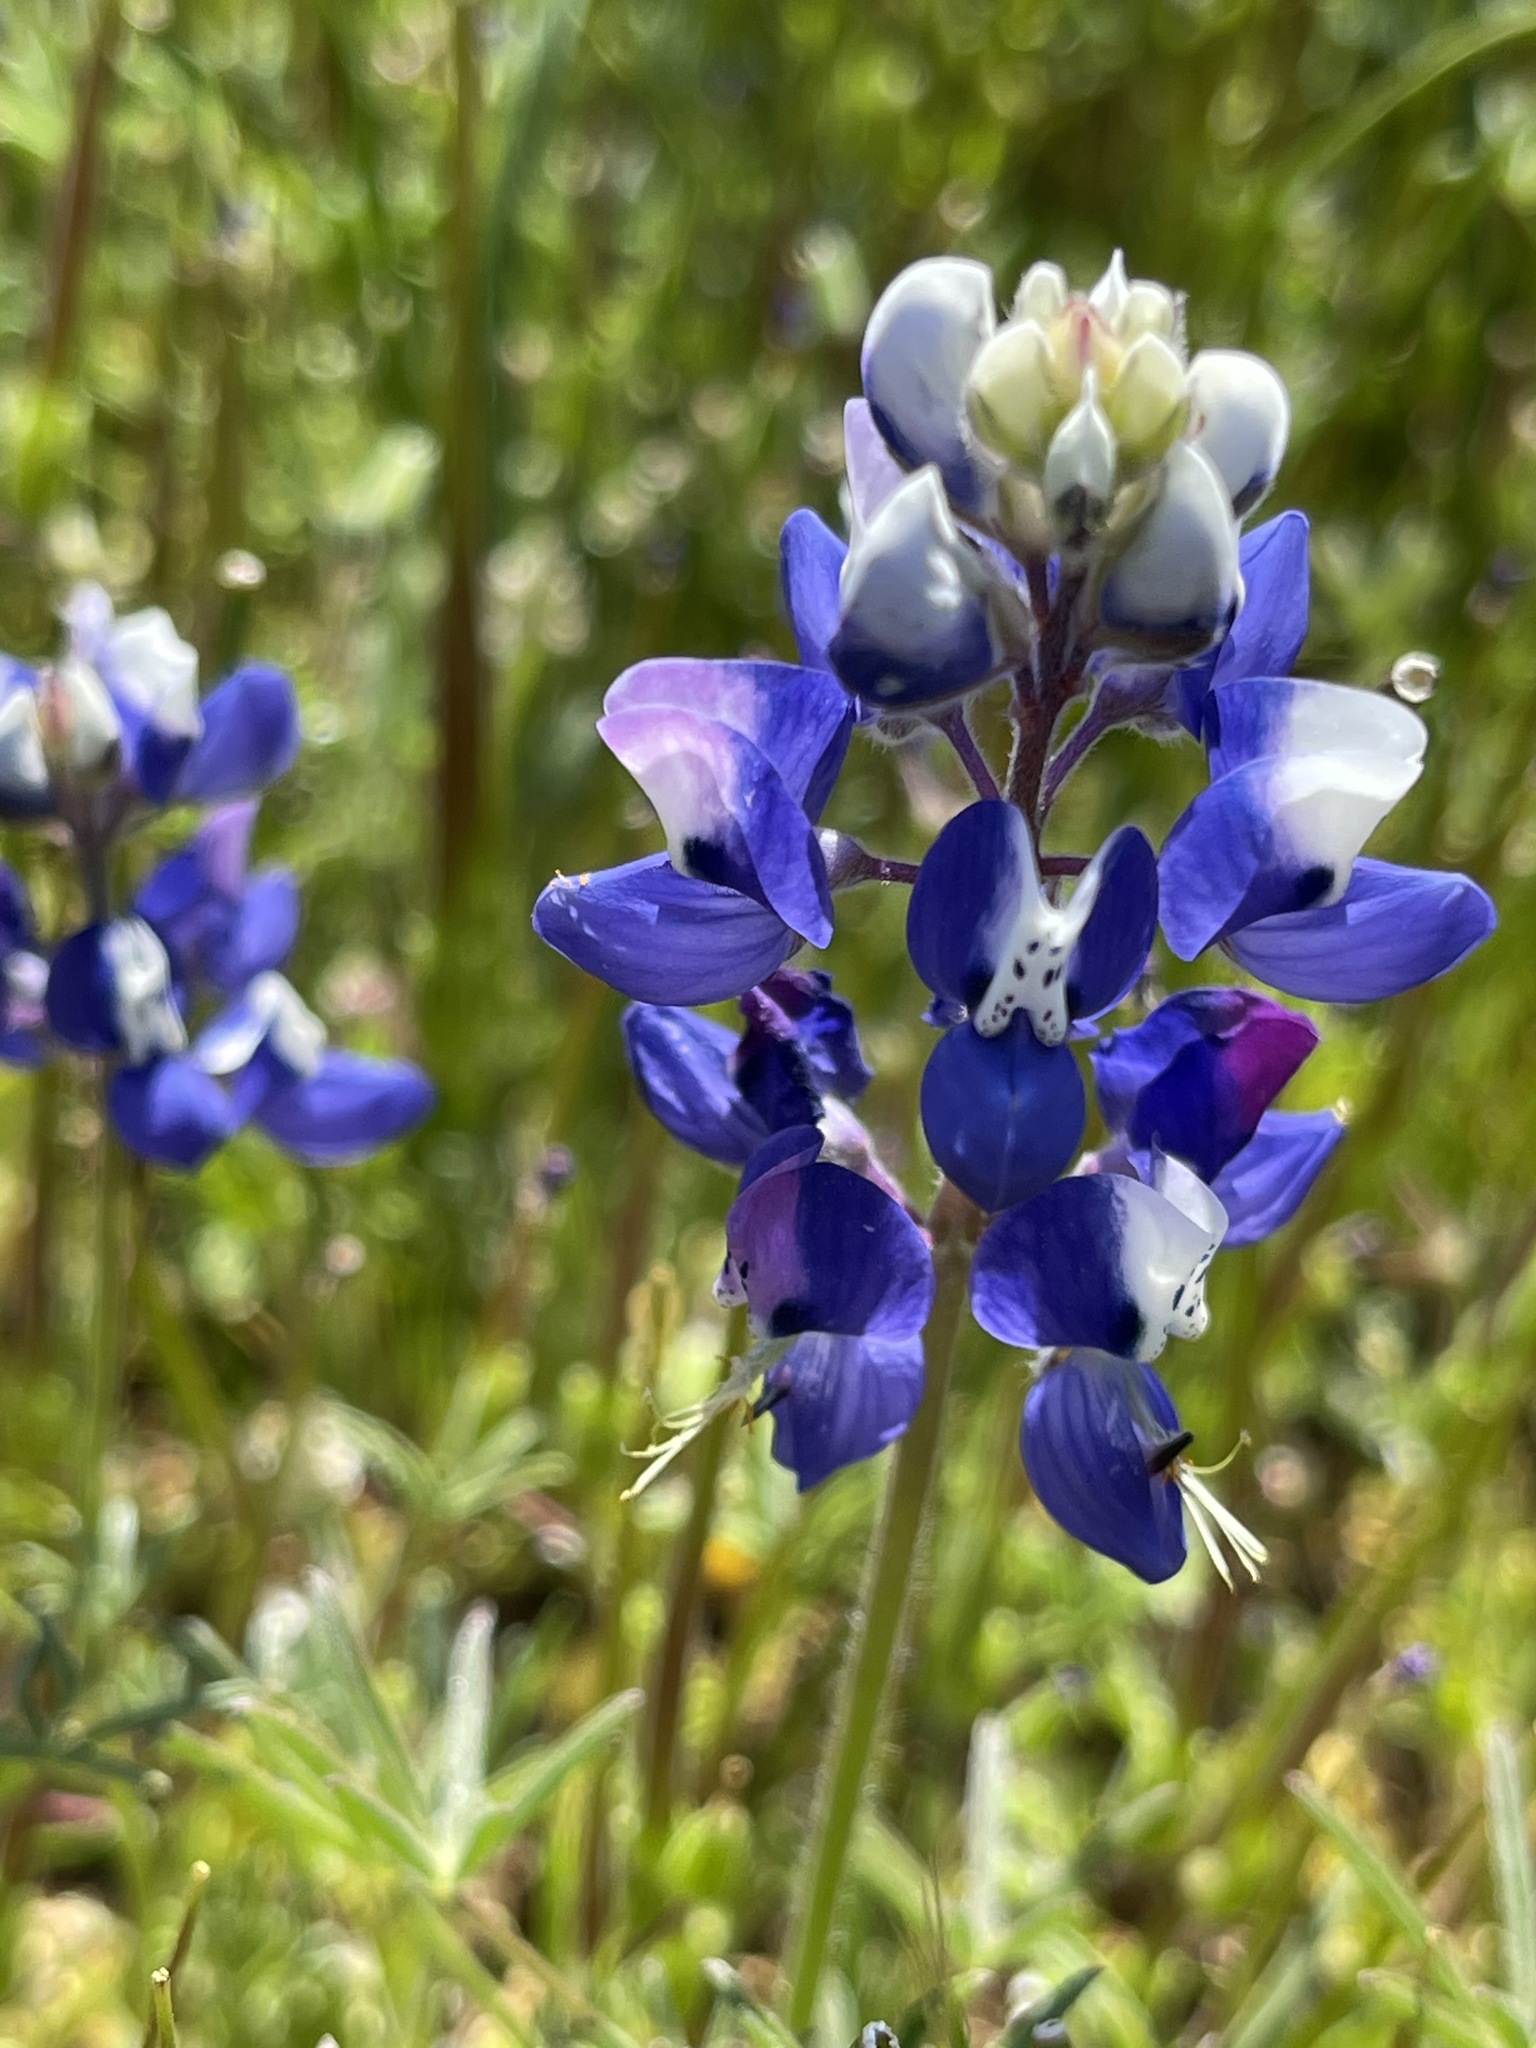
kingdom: Plantae
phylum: Tracheophyta
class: Magnoliopsida
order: Fabales
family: Fabaceae
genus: Lupinus
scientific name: Lupinus nanus
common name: Orean blue lupin
